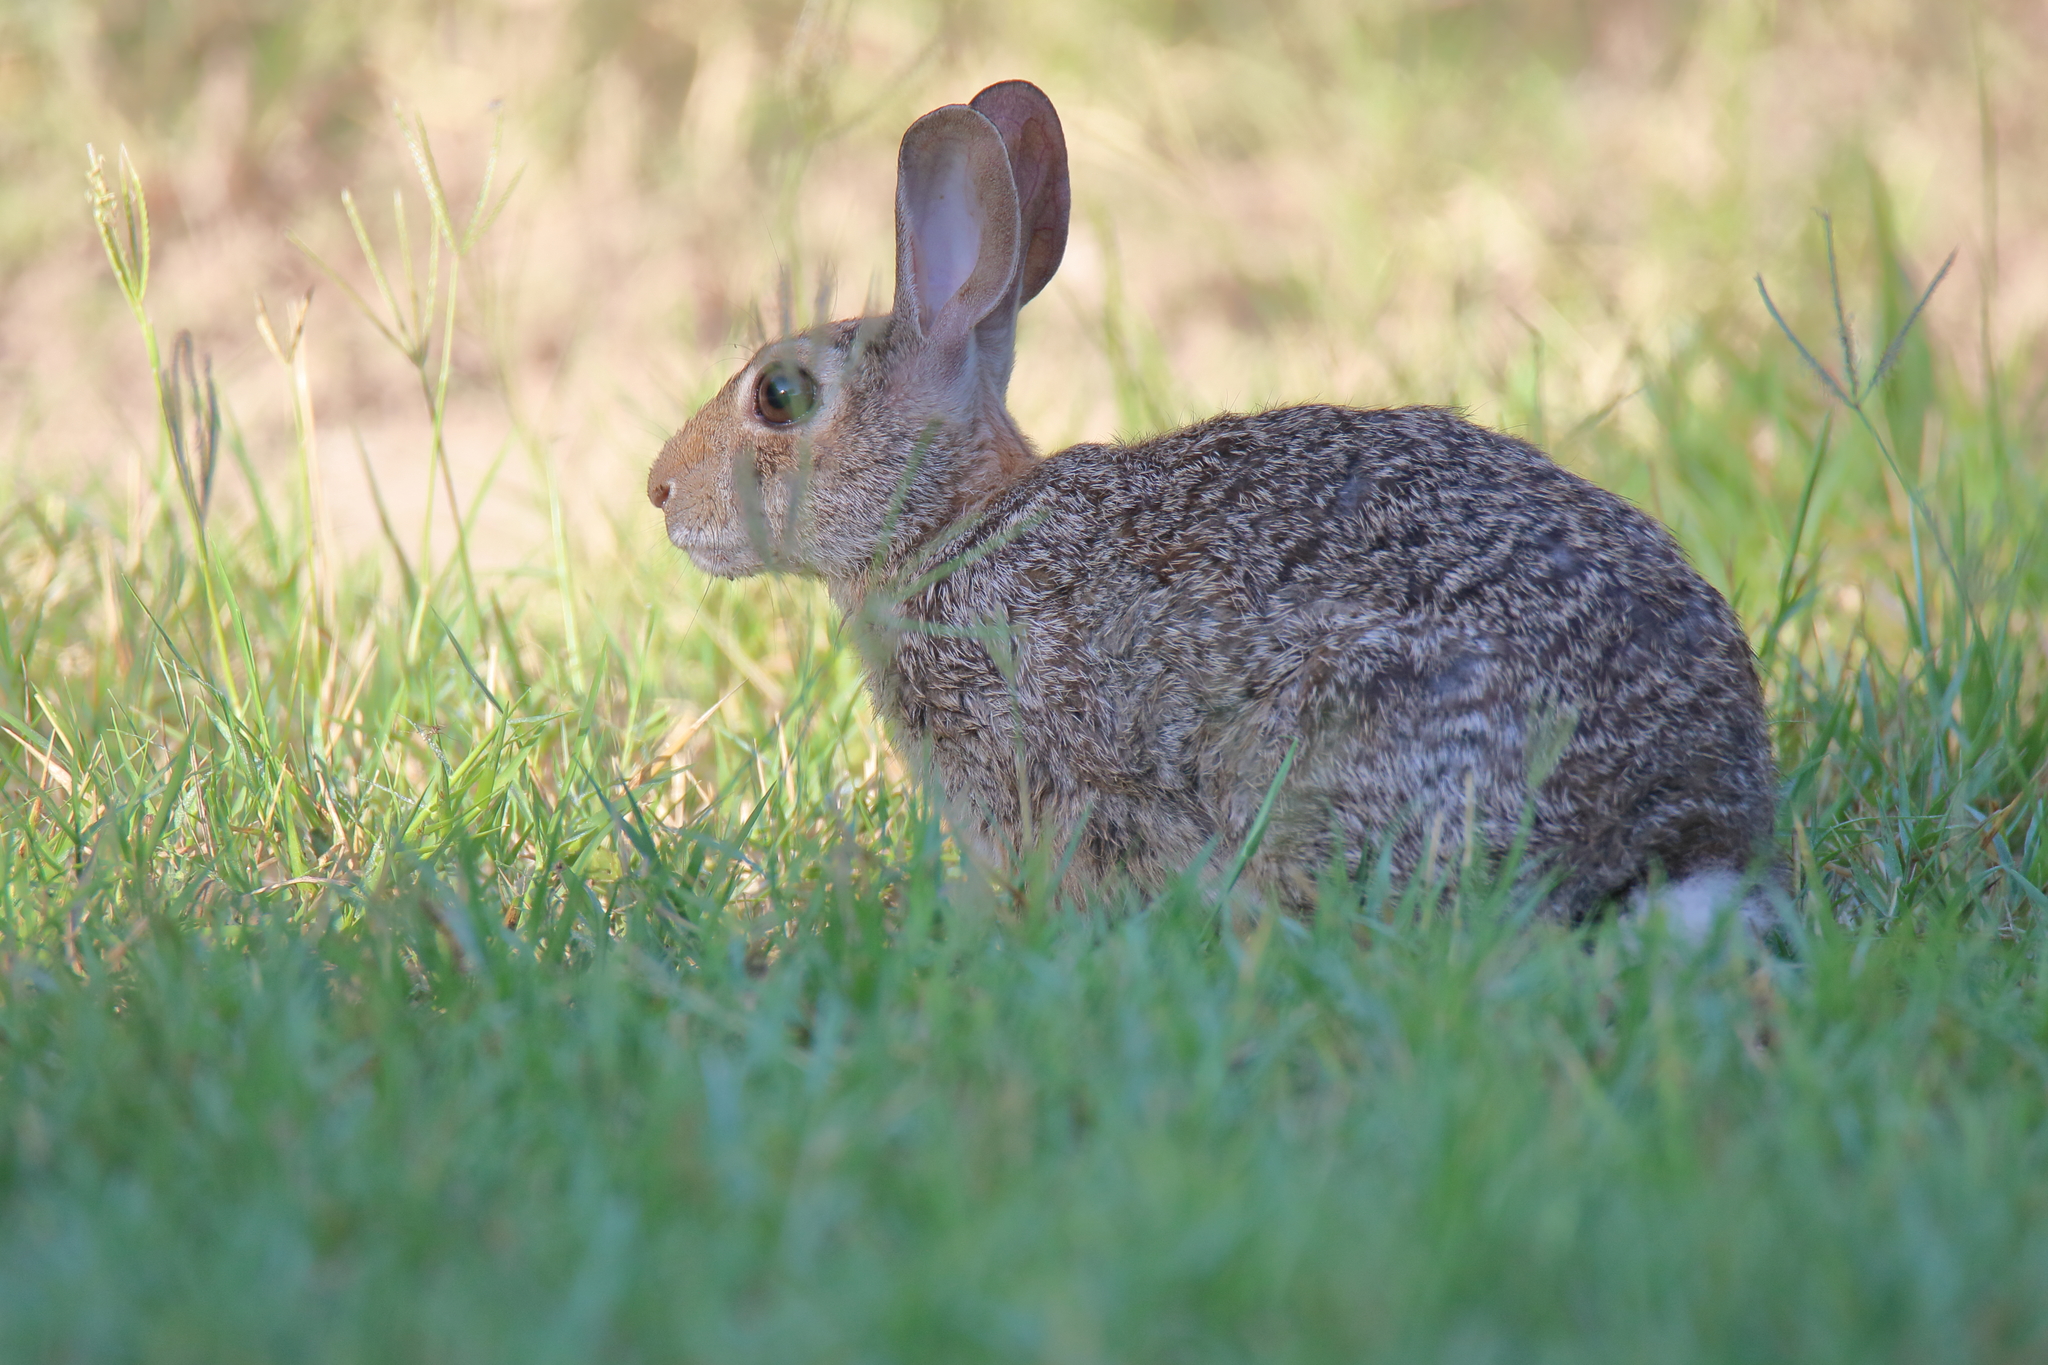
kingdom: Animalia
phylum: Chordata
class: Mammalia
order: Lagomorpha
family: Leporidae
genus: Sylvilagus
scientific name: Sylvilagus floridanus
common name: Eastern cottontail
